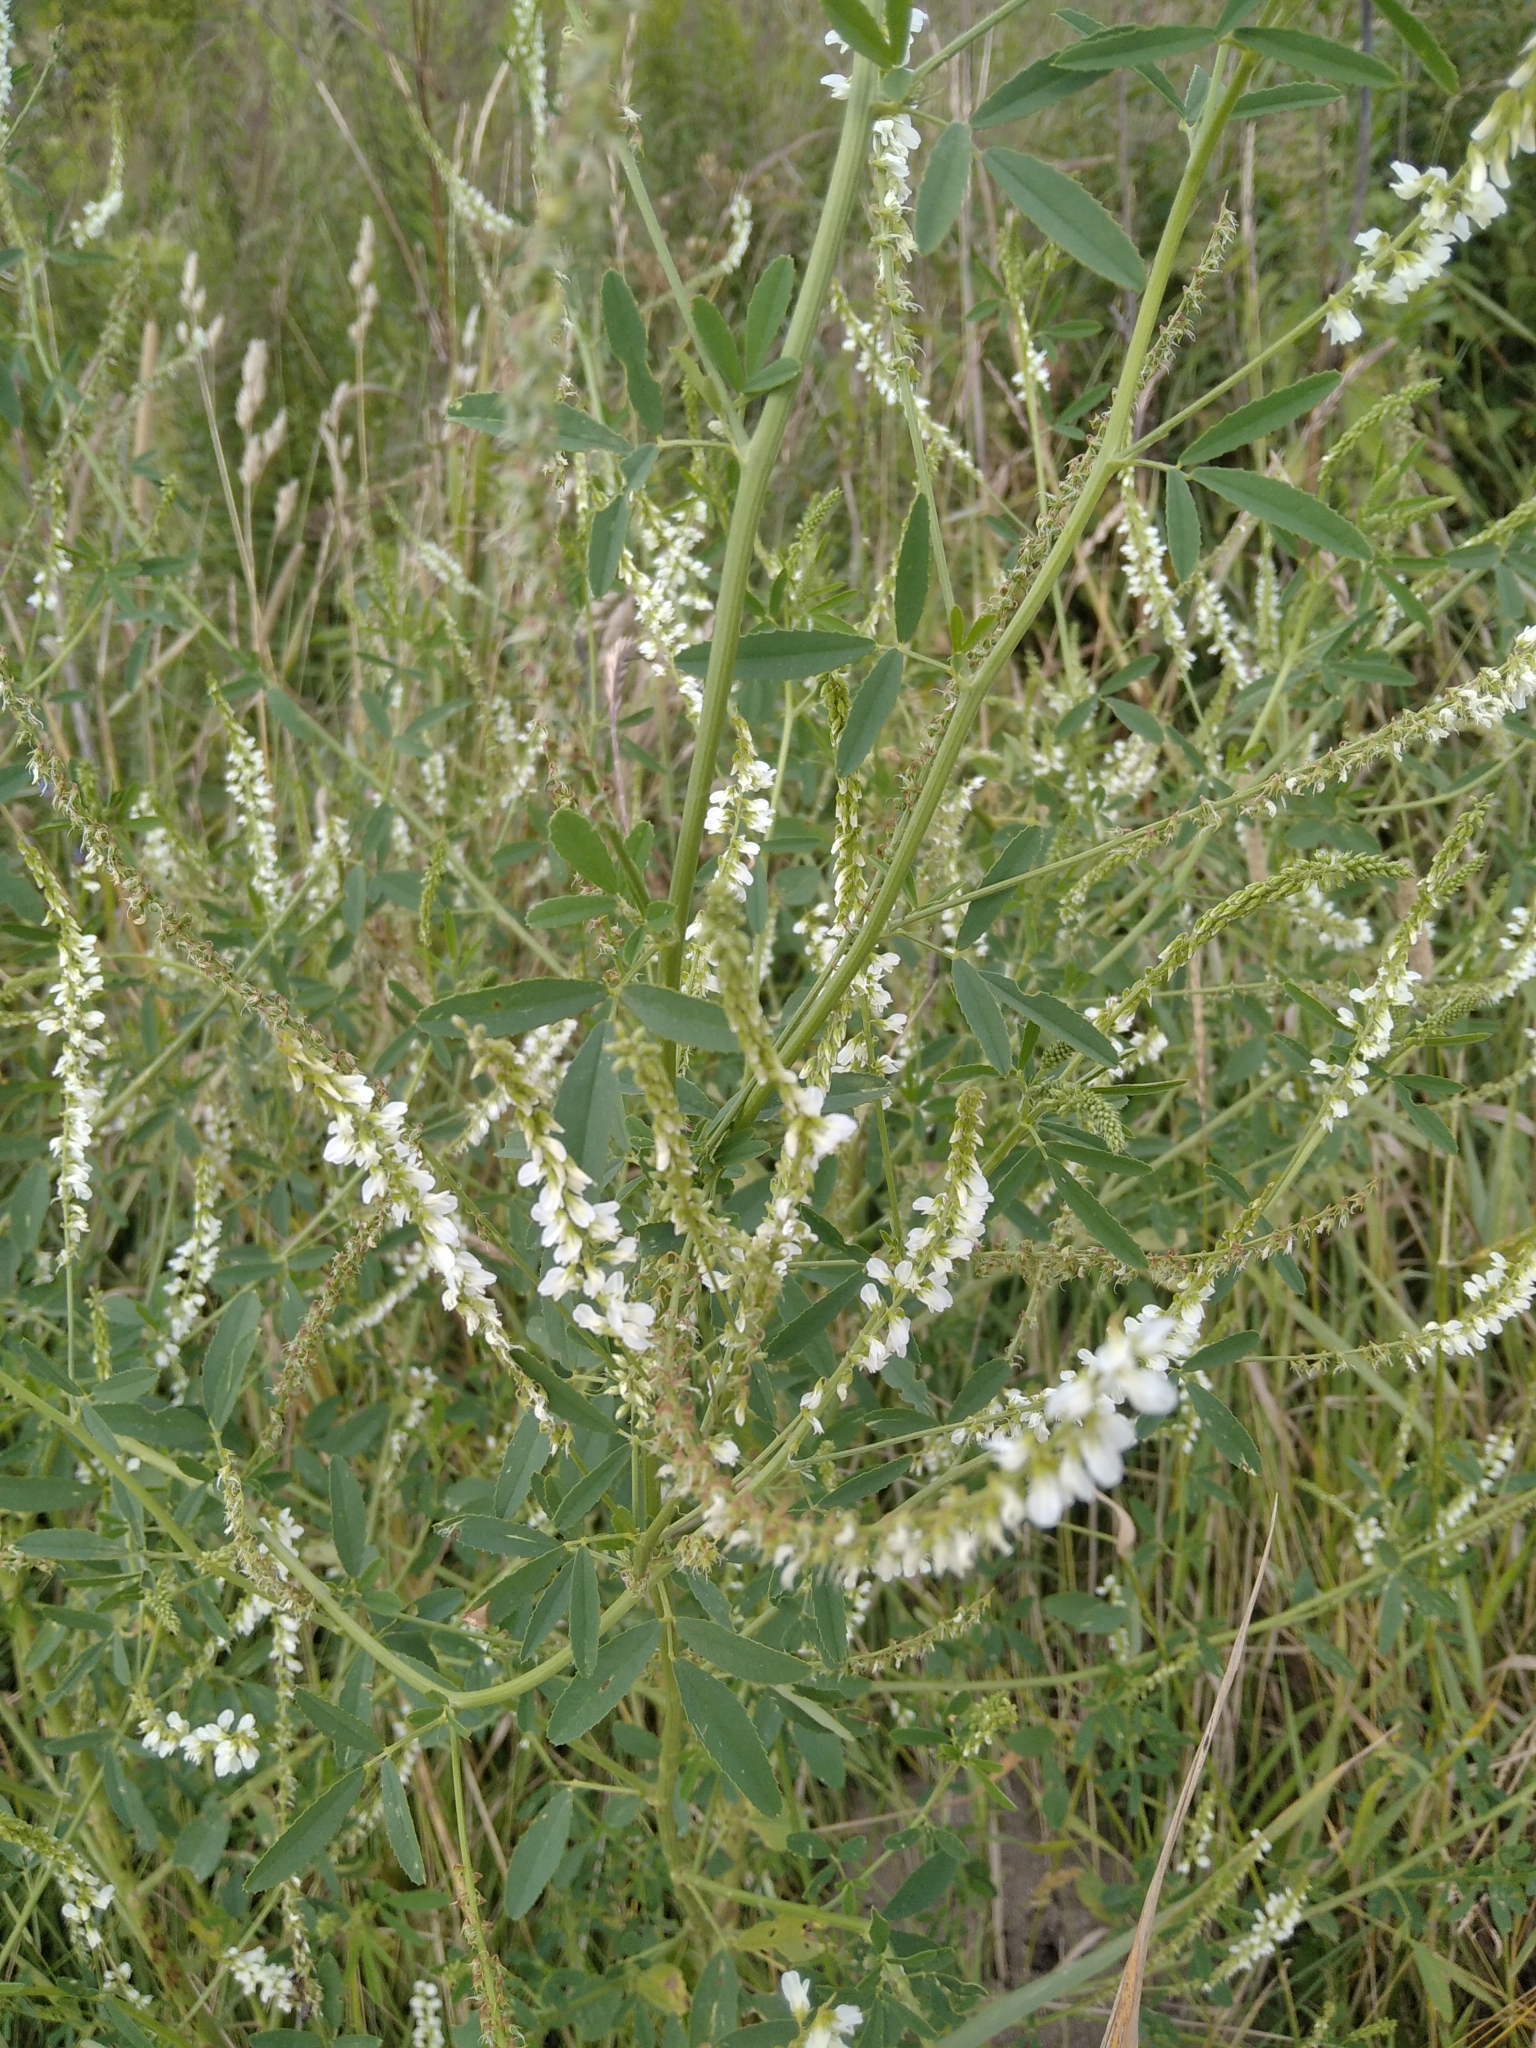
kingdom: Plantae
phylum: Tracheophyta
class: Magnoliopsida
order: Fabales
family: Fabaceae
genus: Melilotus
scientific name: Melilotus albus
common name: White melilot
